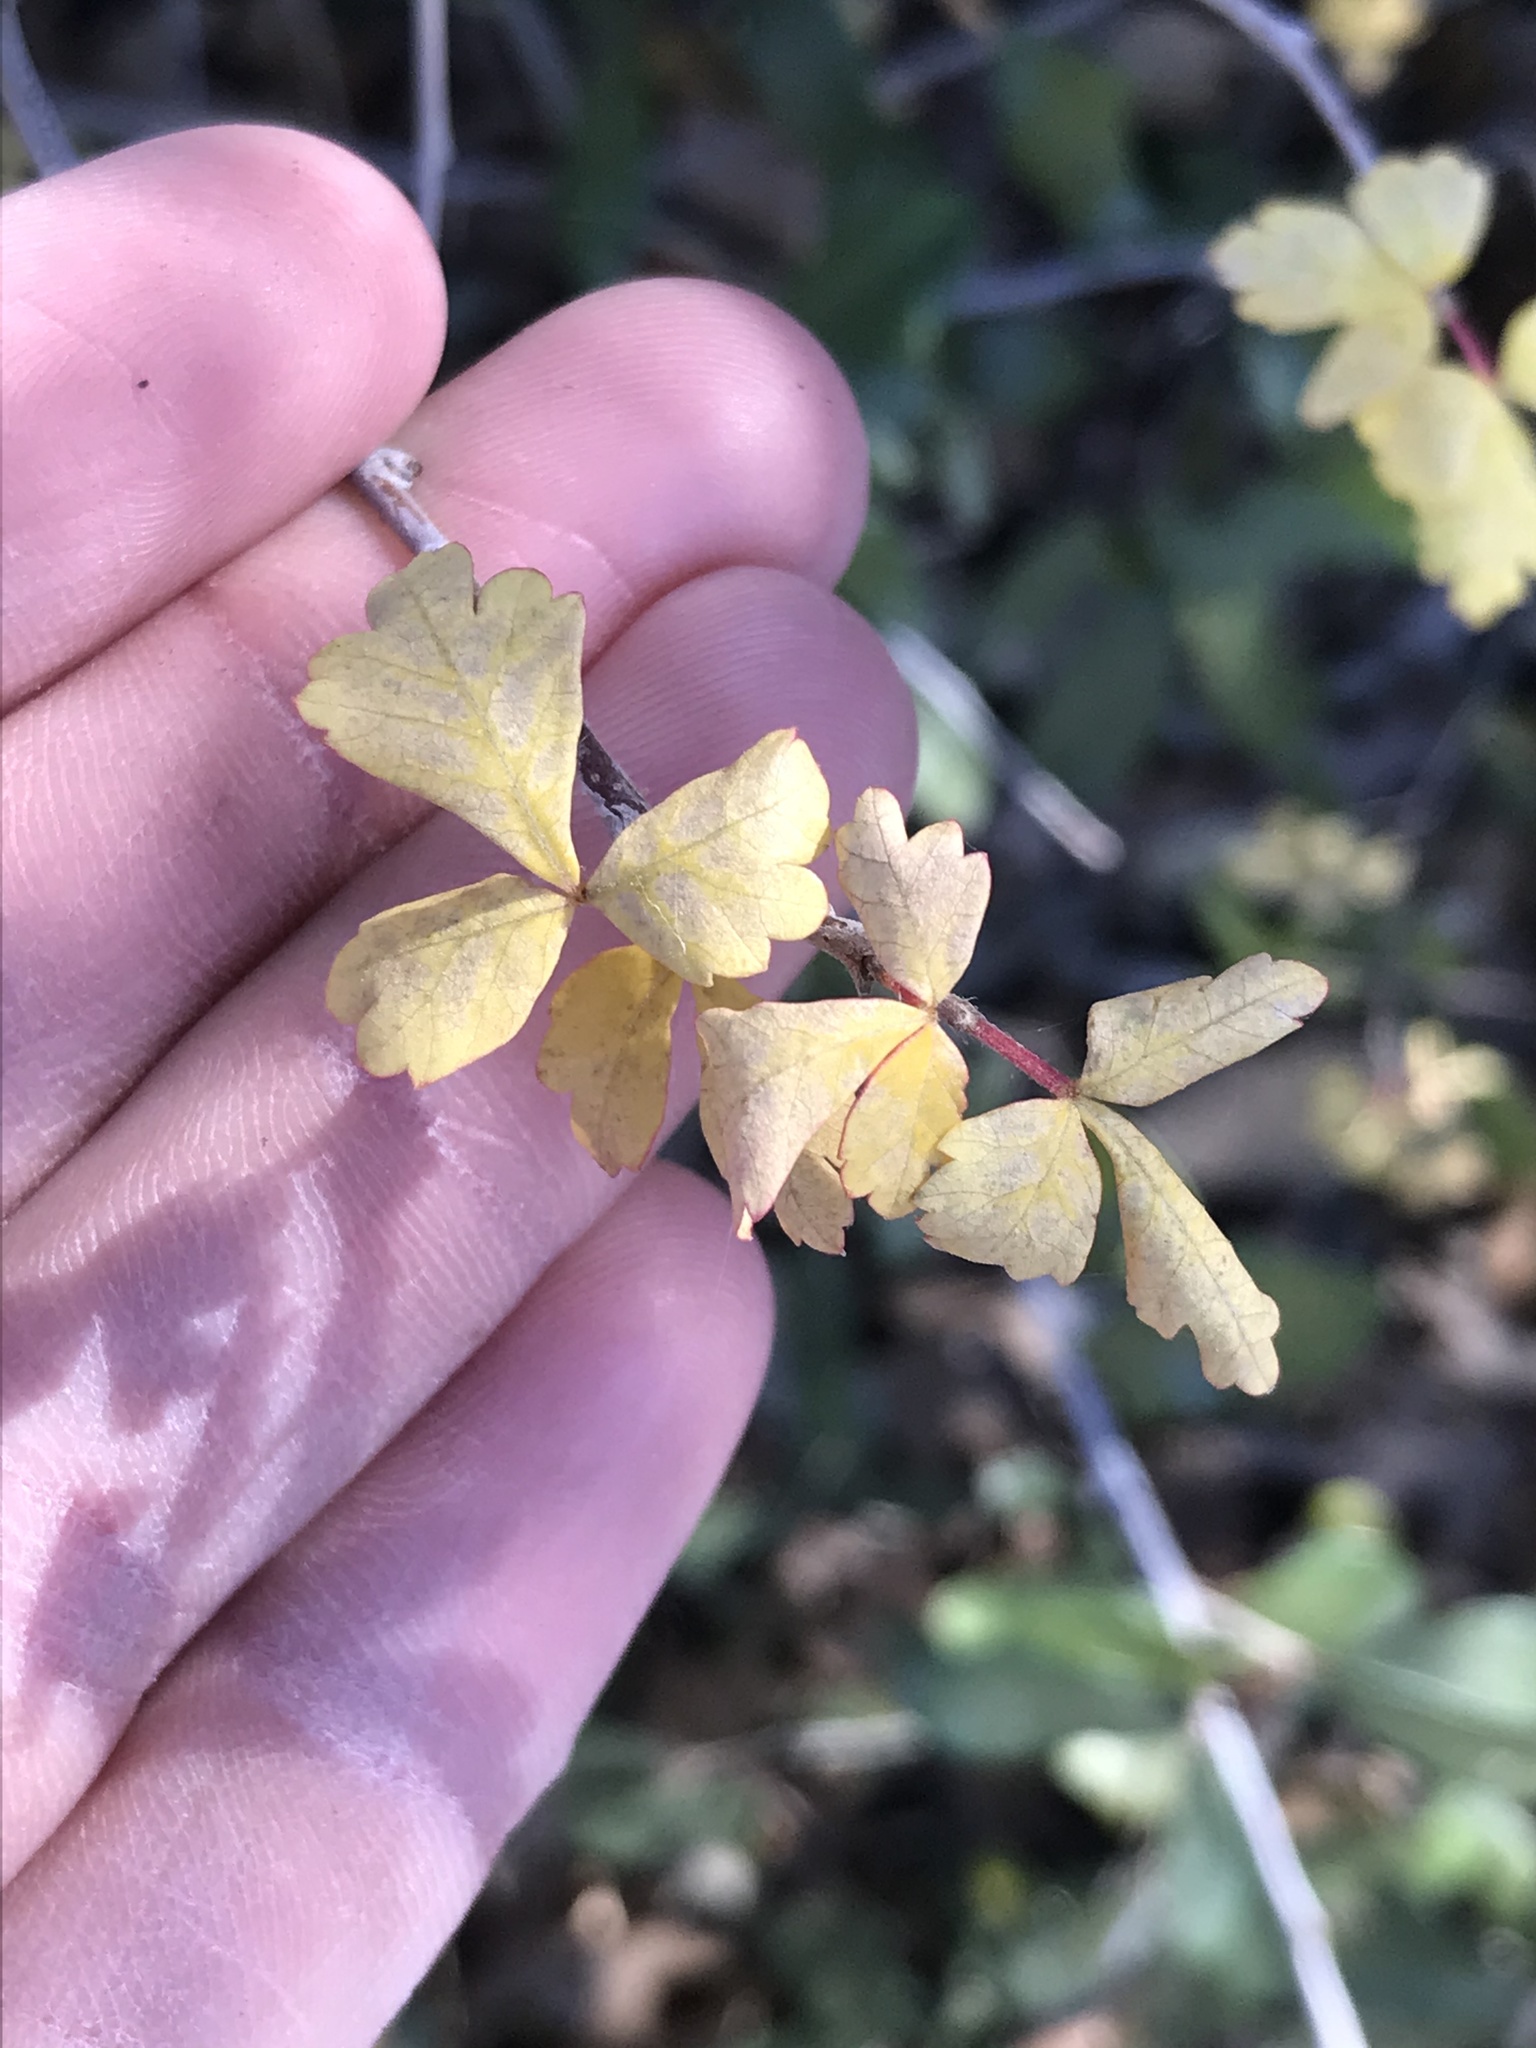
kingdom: Plantae
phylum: Tracheophyta
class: Magnoliopsida
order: Sapindales
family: Anacardiaceae
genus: Rhus
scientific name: Rhus aromatica
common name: Aromatic sumac
